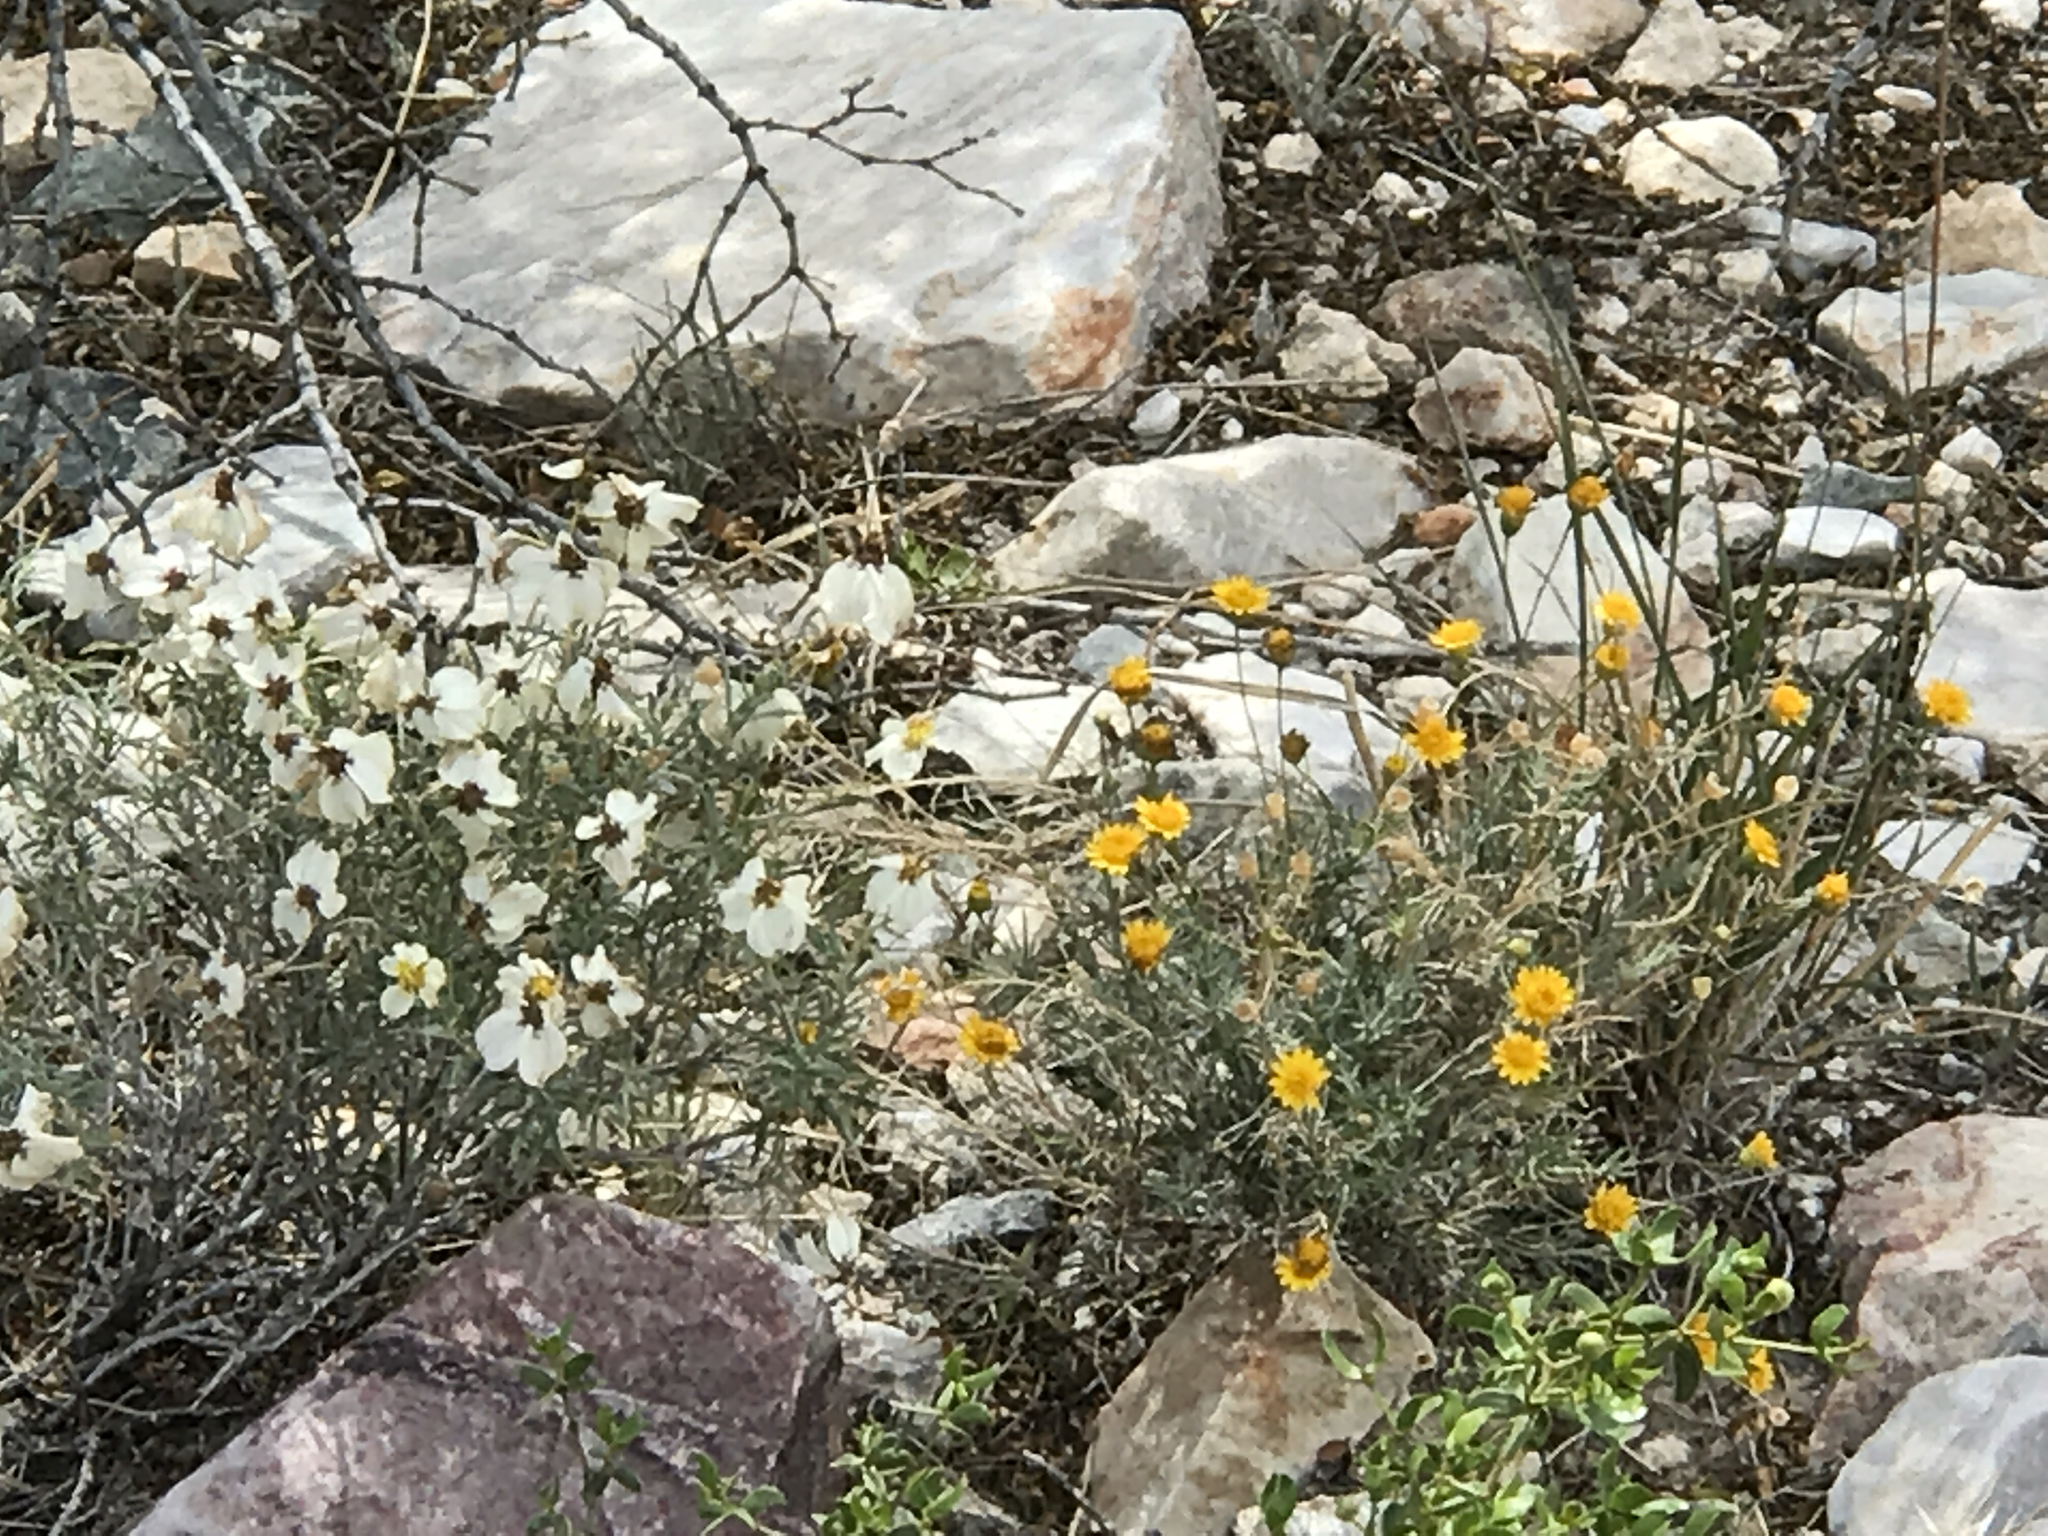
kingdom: Plantae
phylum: Tracheophyta
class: Magnoliopsida
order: Asterales
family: Asteraceae
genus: Thymophylla
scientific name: Thymophylla pentachaeta
